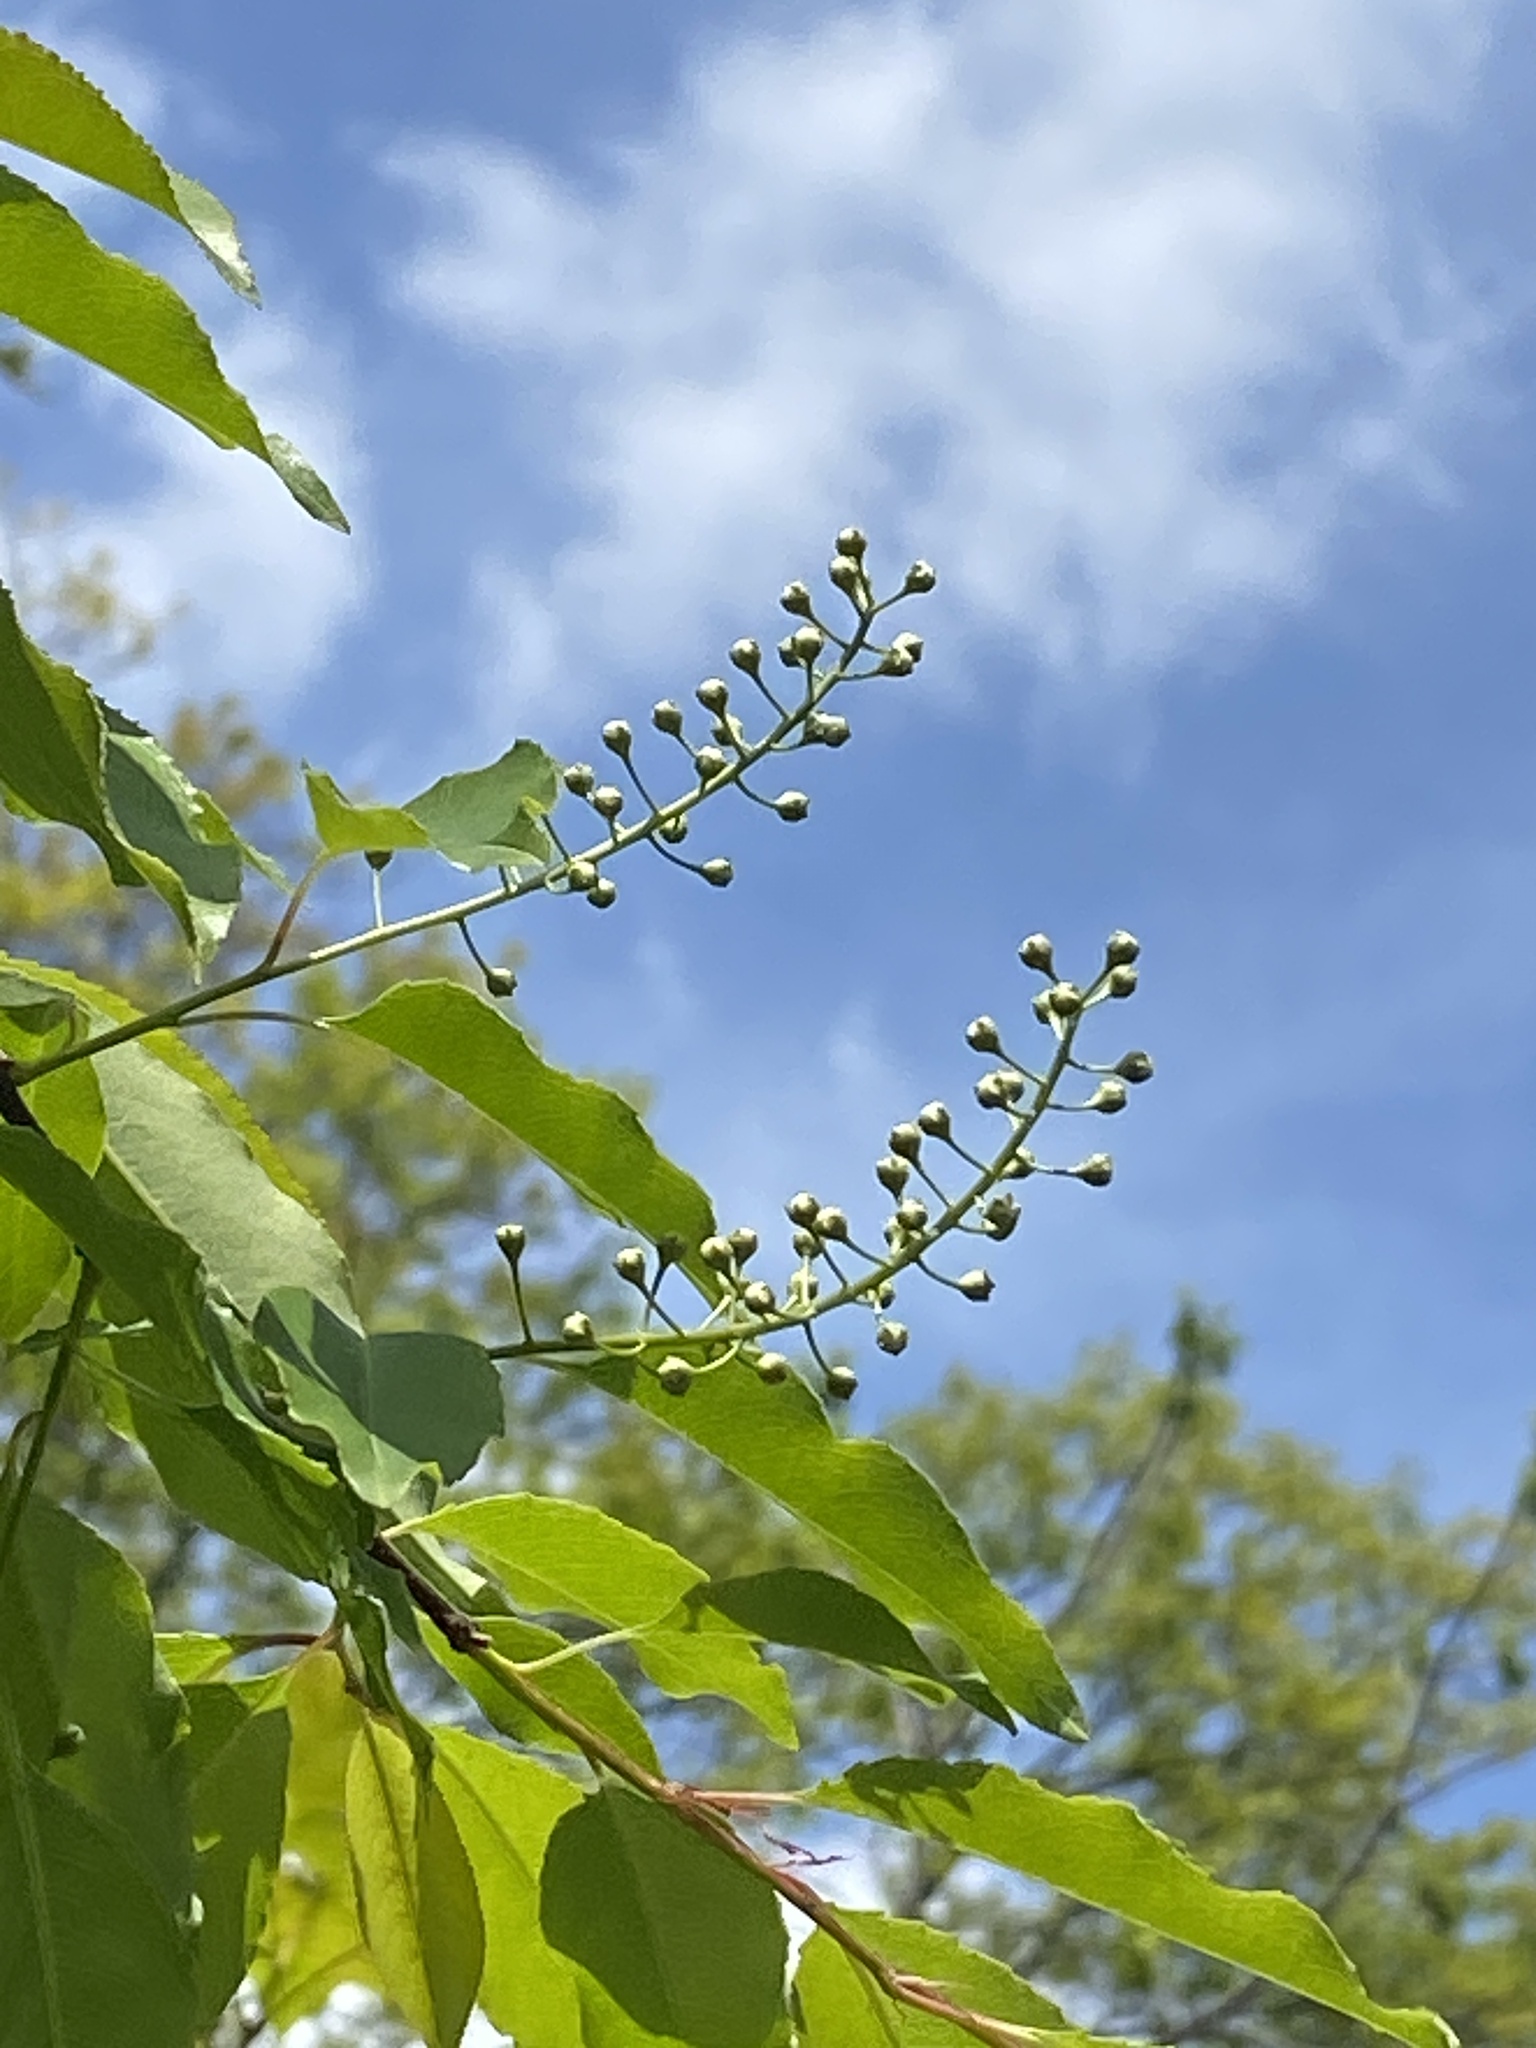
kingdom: Plantae
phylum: Tracheophyta
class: Magnoliopsida
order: Rosales
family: Rosaceae
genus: Prunus
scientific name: Prunus serotina
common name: Black cherry
